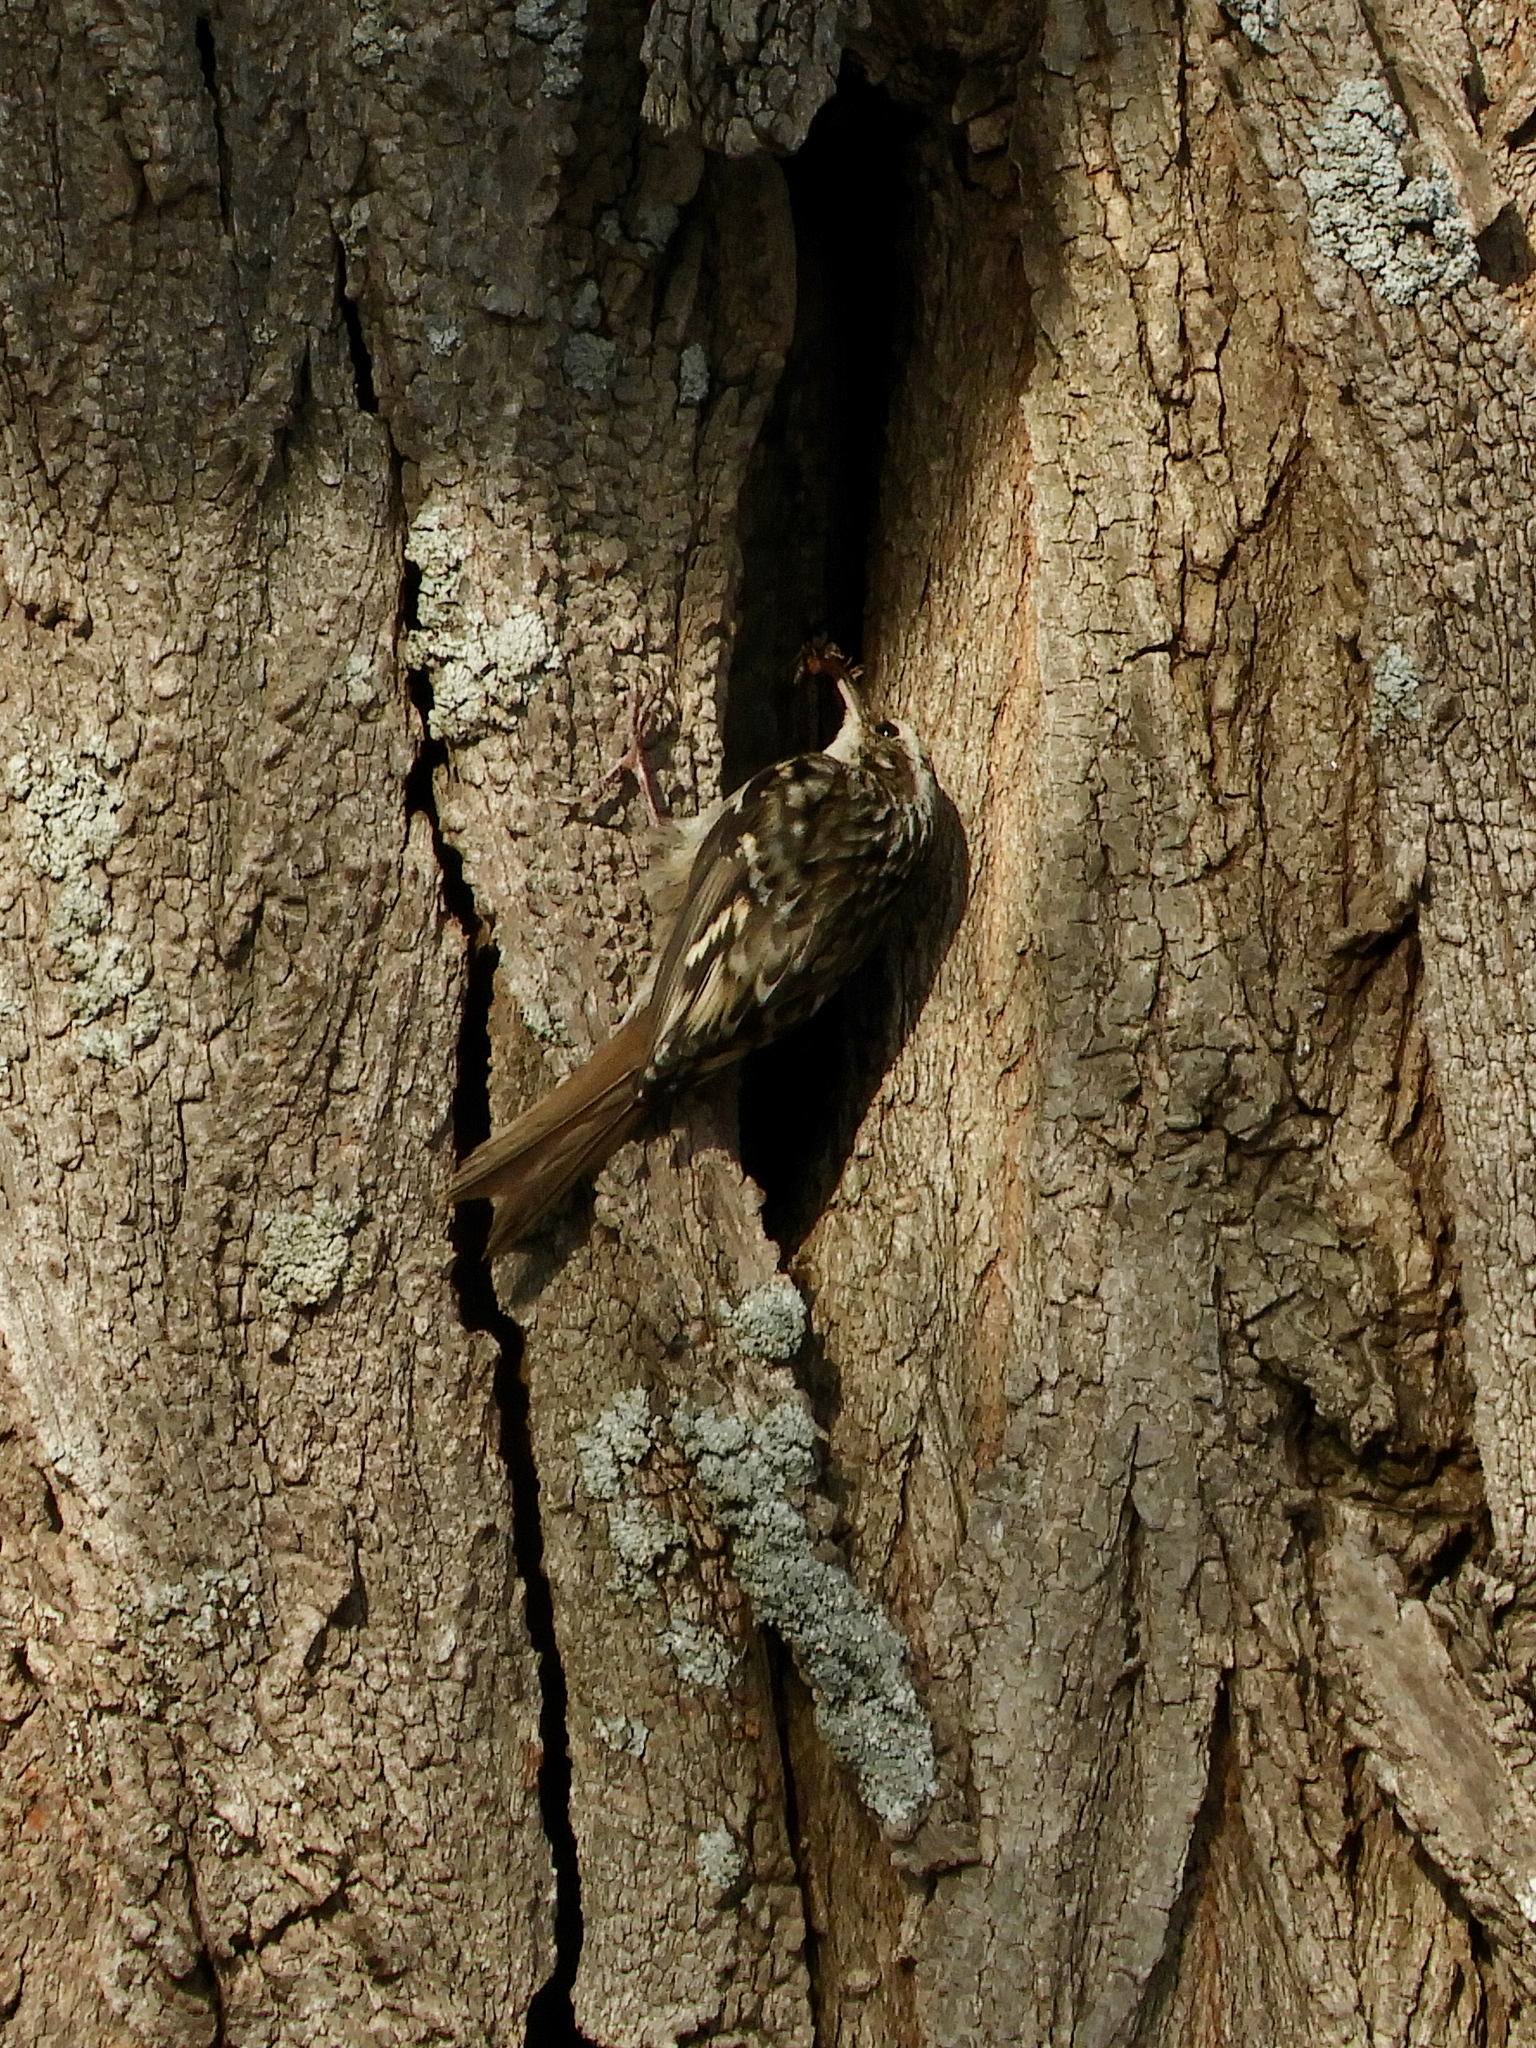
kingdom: Animalia
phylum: Chordata
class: Aves
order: Passeriformes
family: Certhiidae
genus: Certhia
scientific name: Certhia brachydactyla
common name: Short-toed treecreeper
